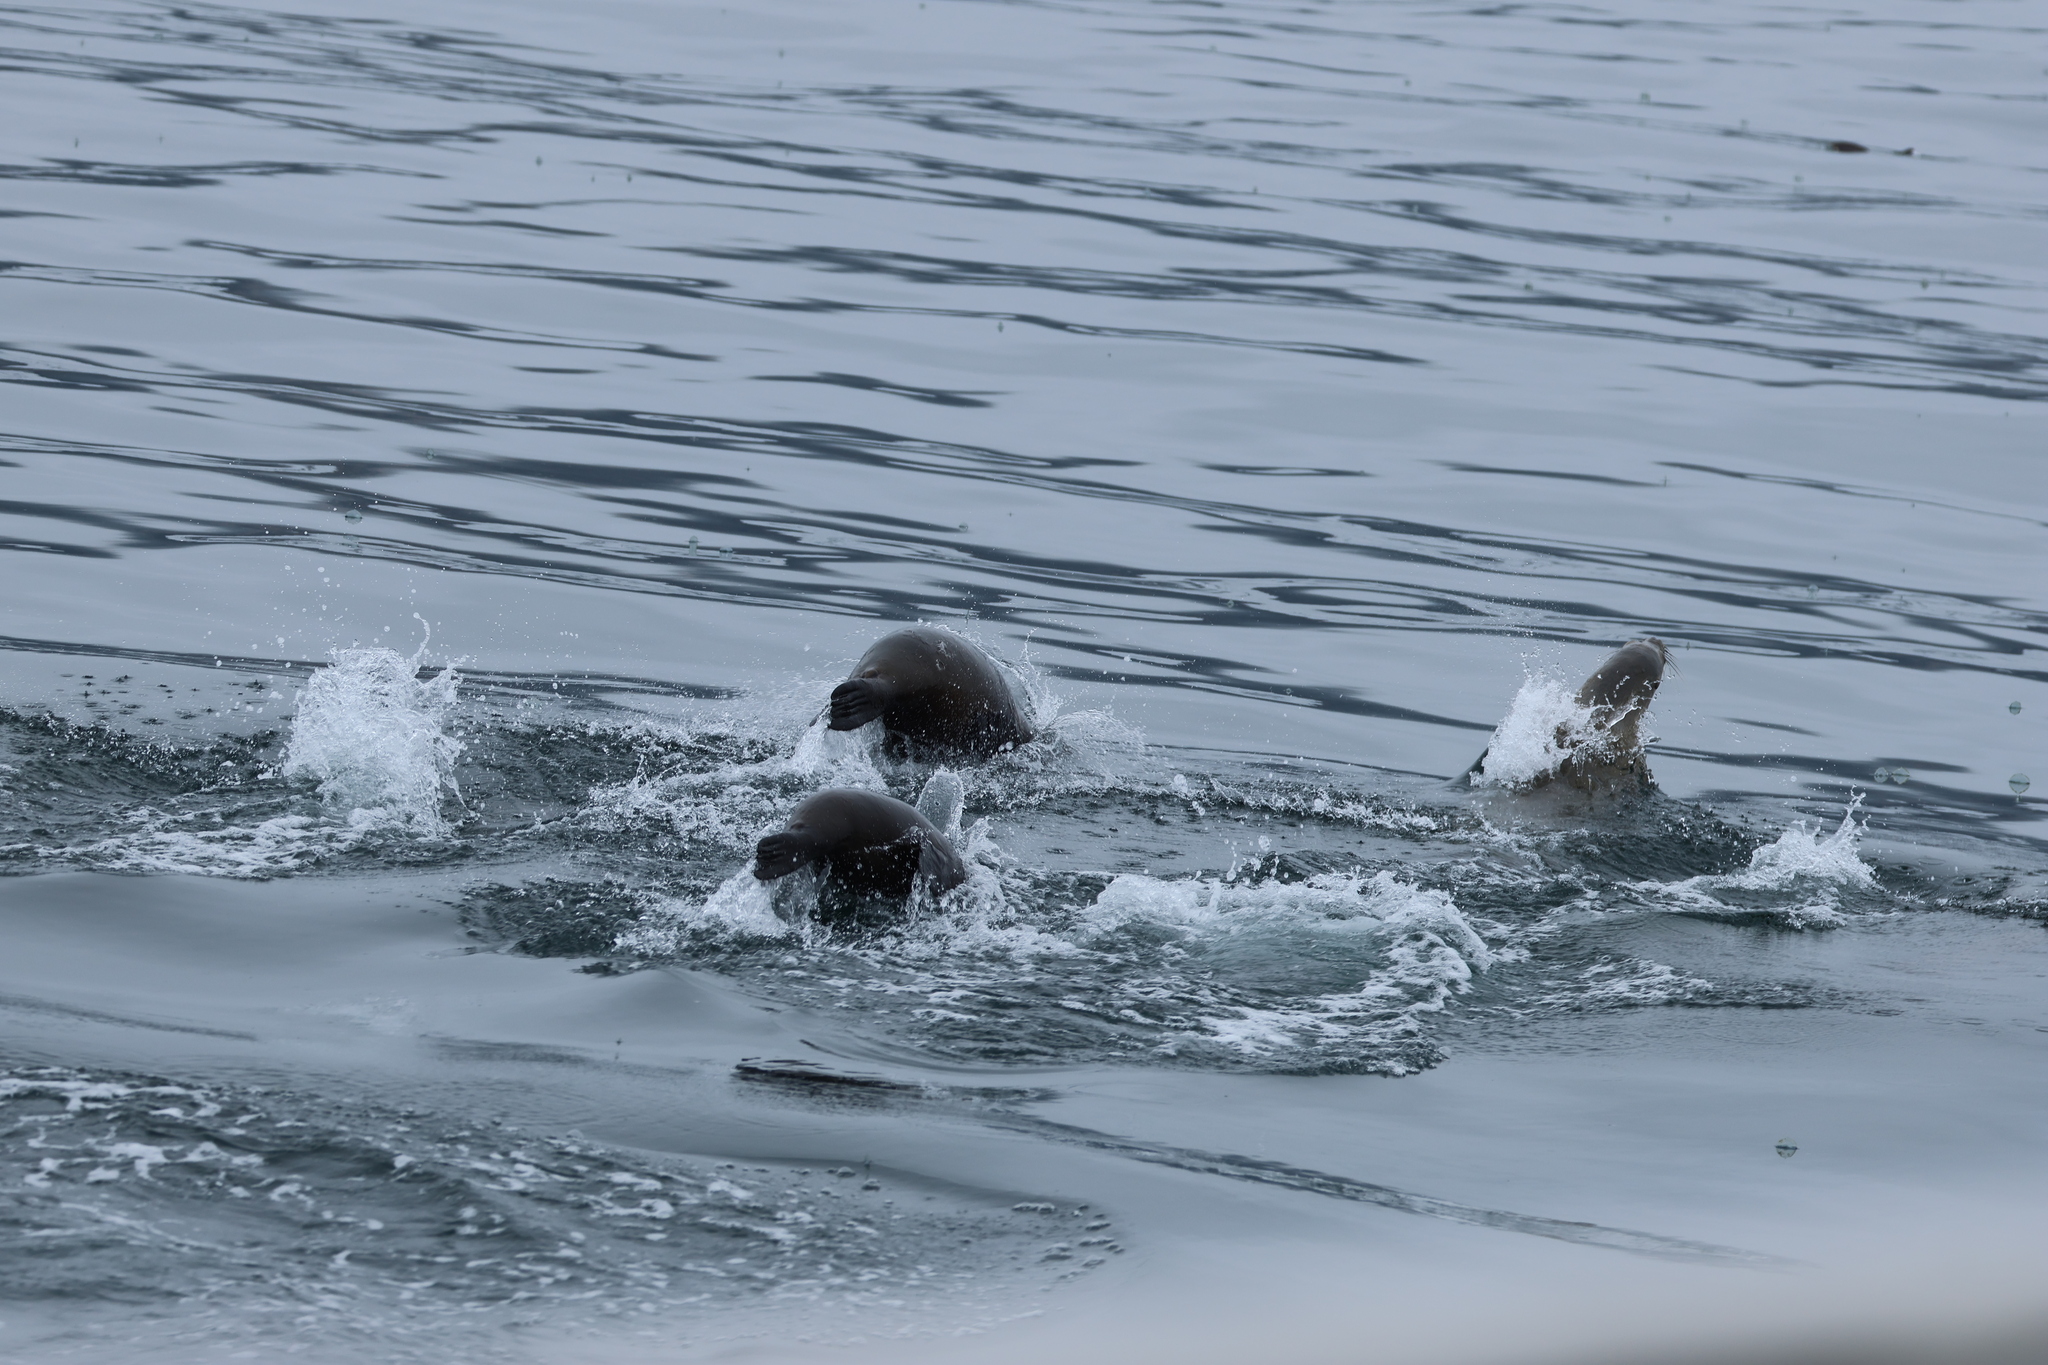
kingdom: Animalia
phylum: Chordata
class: Mammalia
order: Carnivora
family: Otariidae
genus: Zalophus
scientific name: Zalophus californianus
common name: California sea lion
